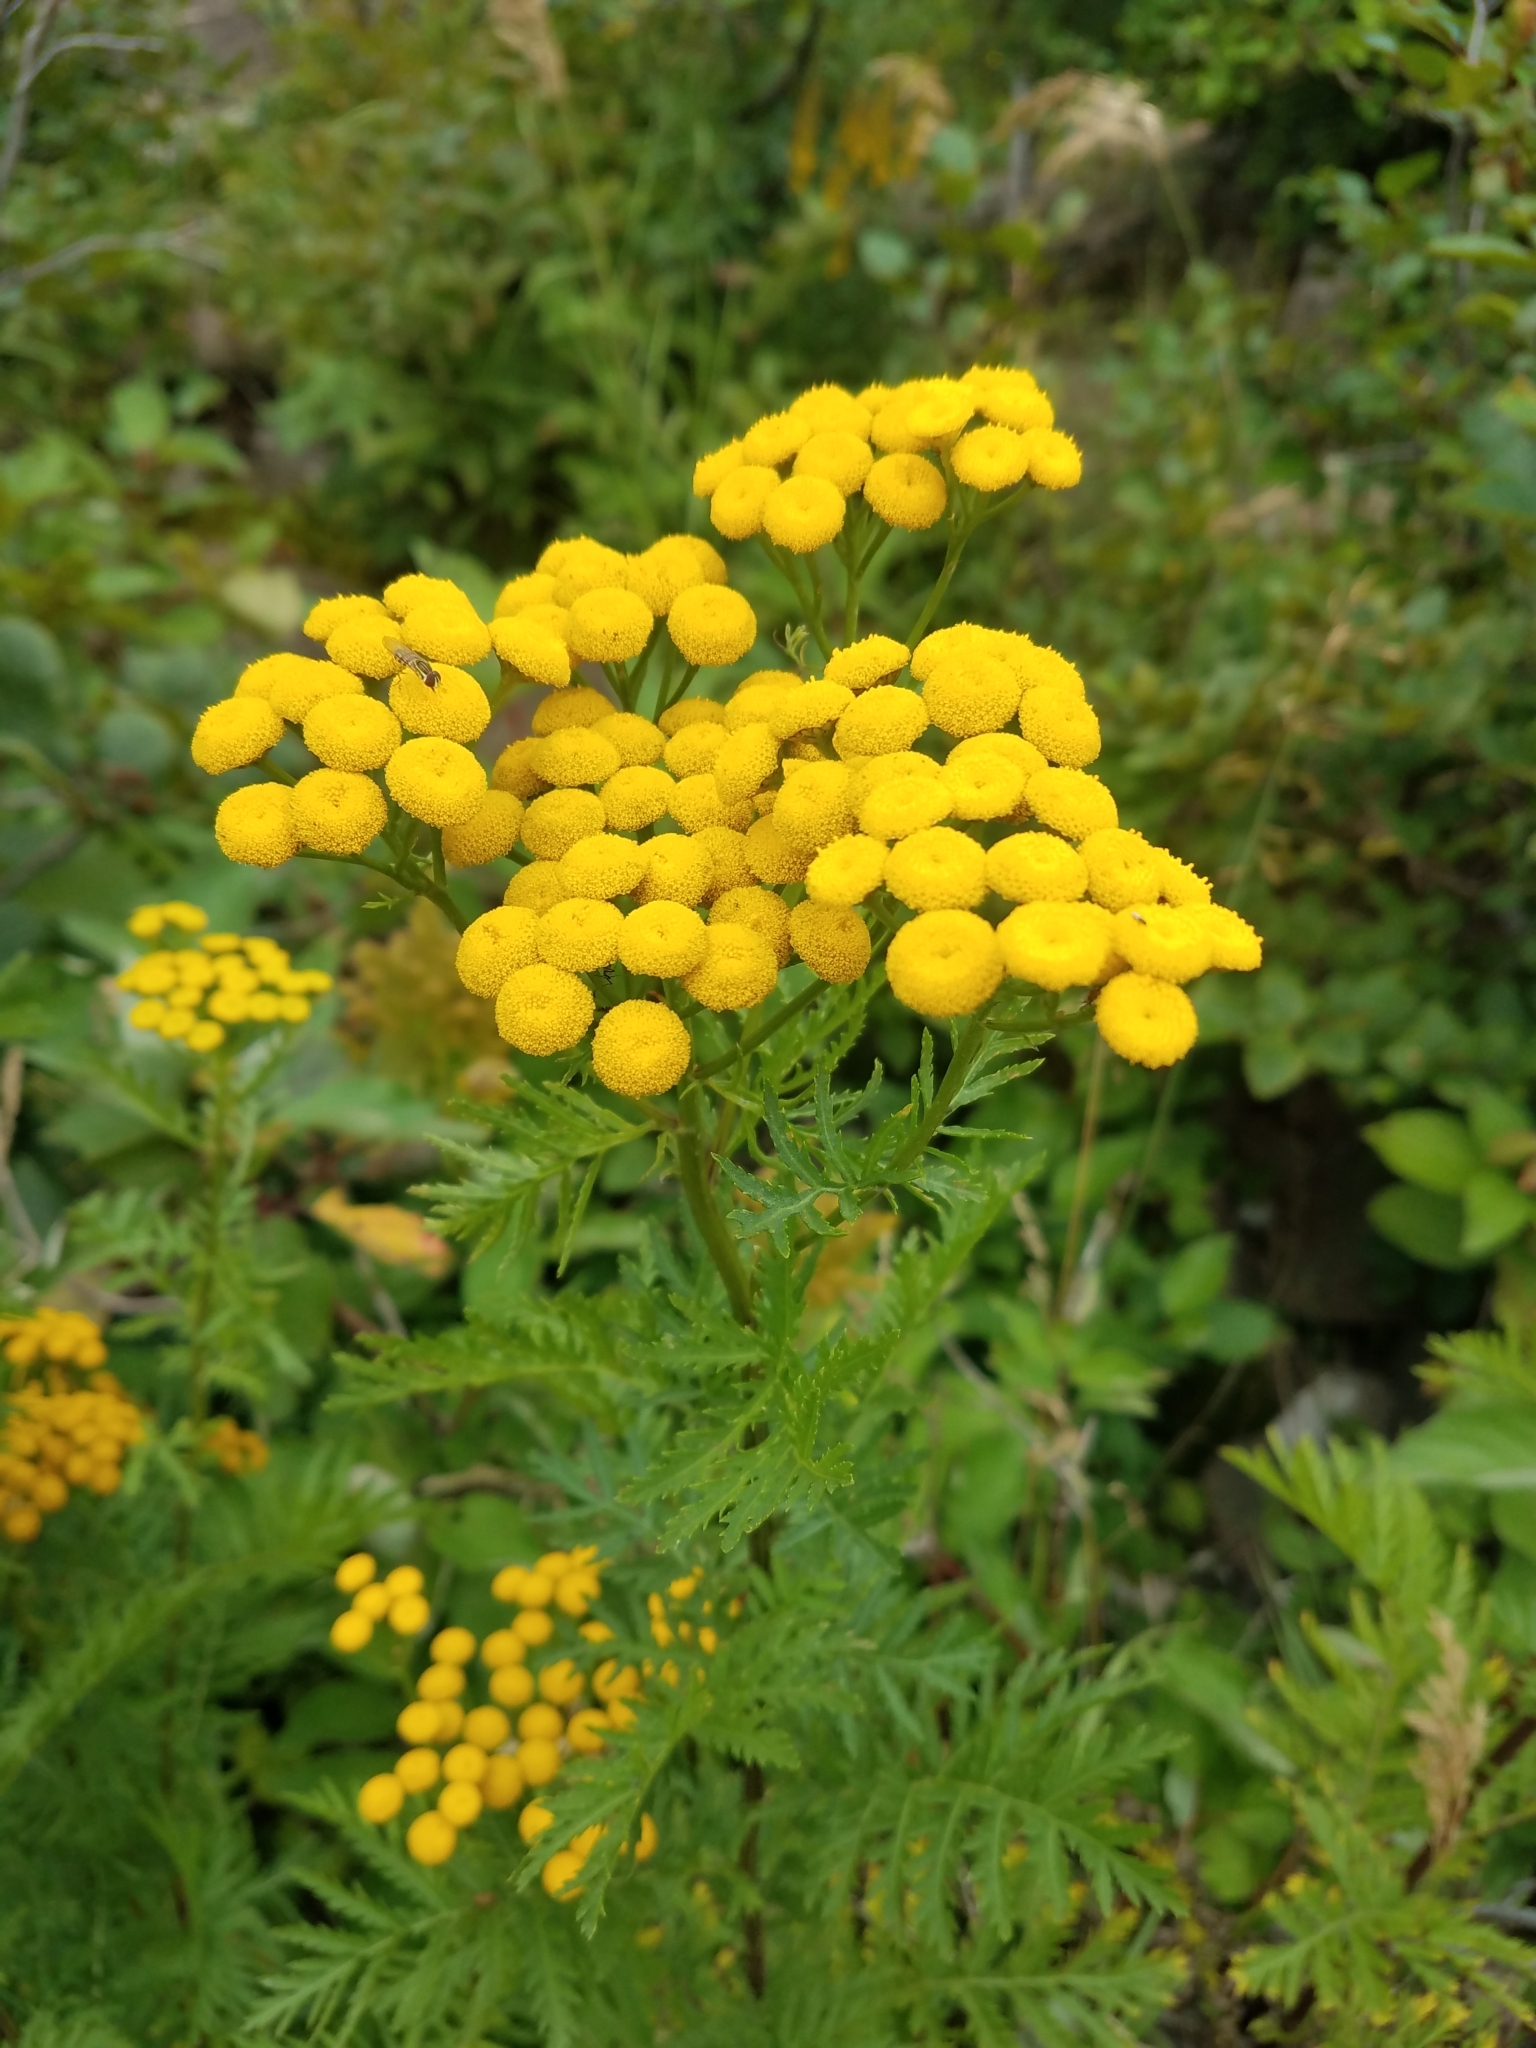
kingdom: Plantae
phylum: Tracheophyta
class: Magnoliopsida
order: Asterales
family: Asteraceae
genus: Tanacetum
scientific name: Tanacetum vulgare
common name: Common tansy
